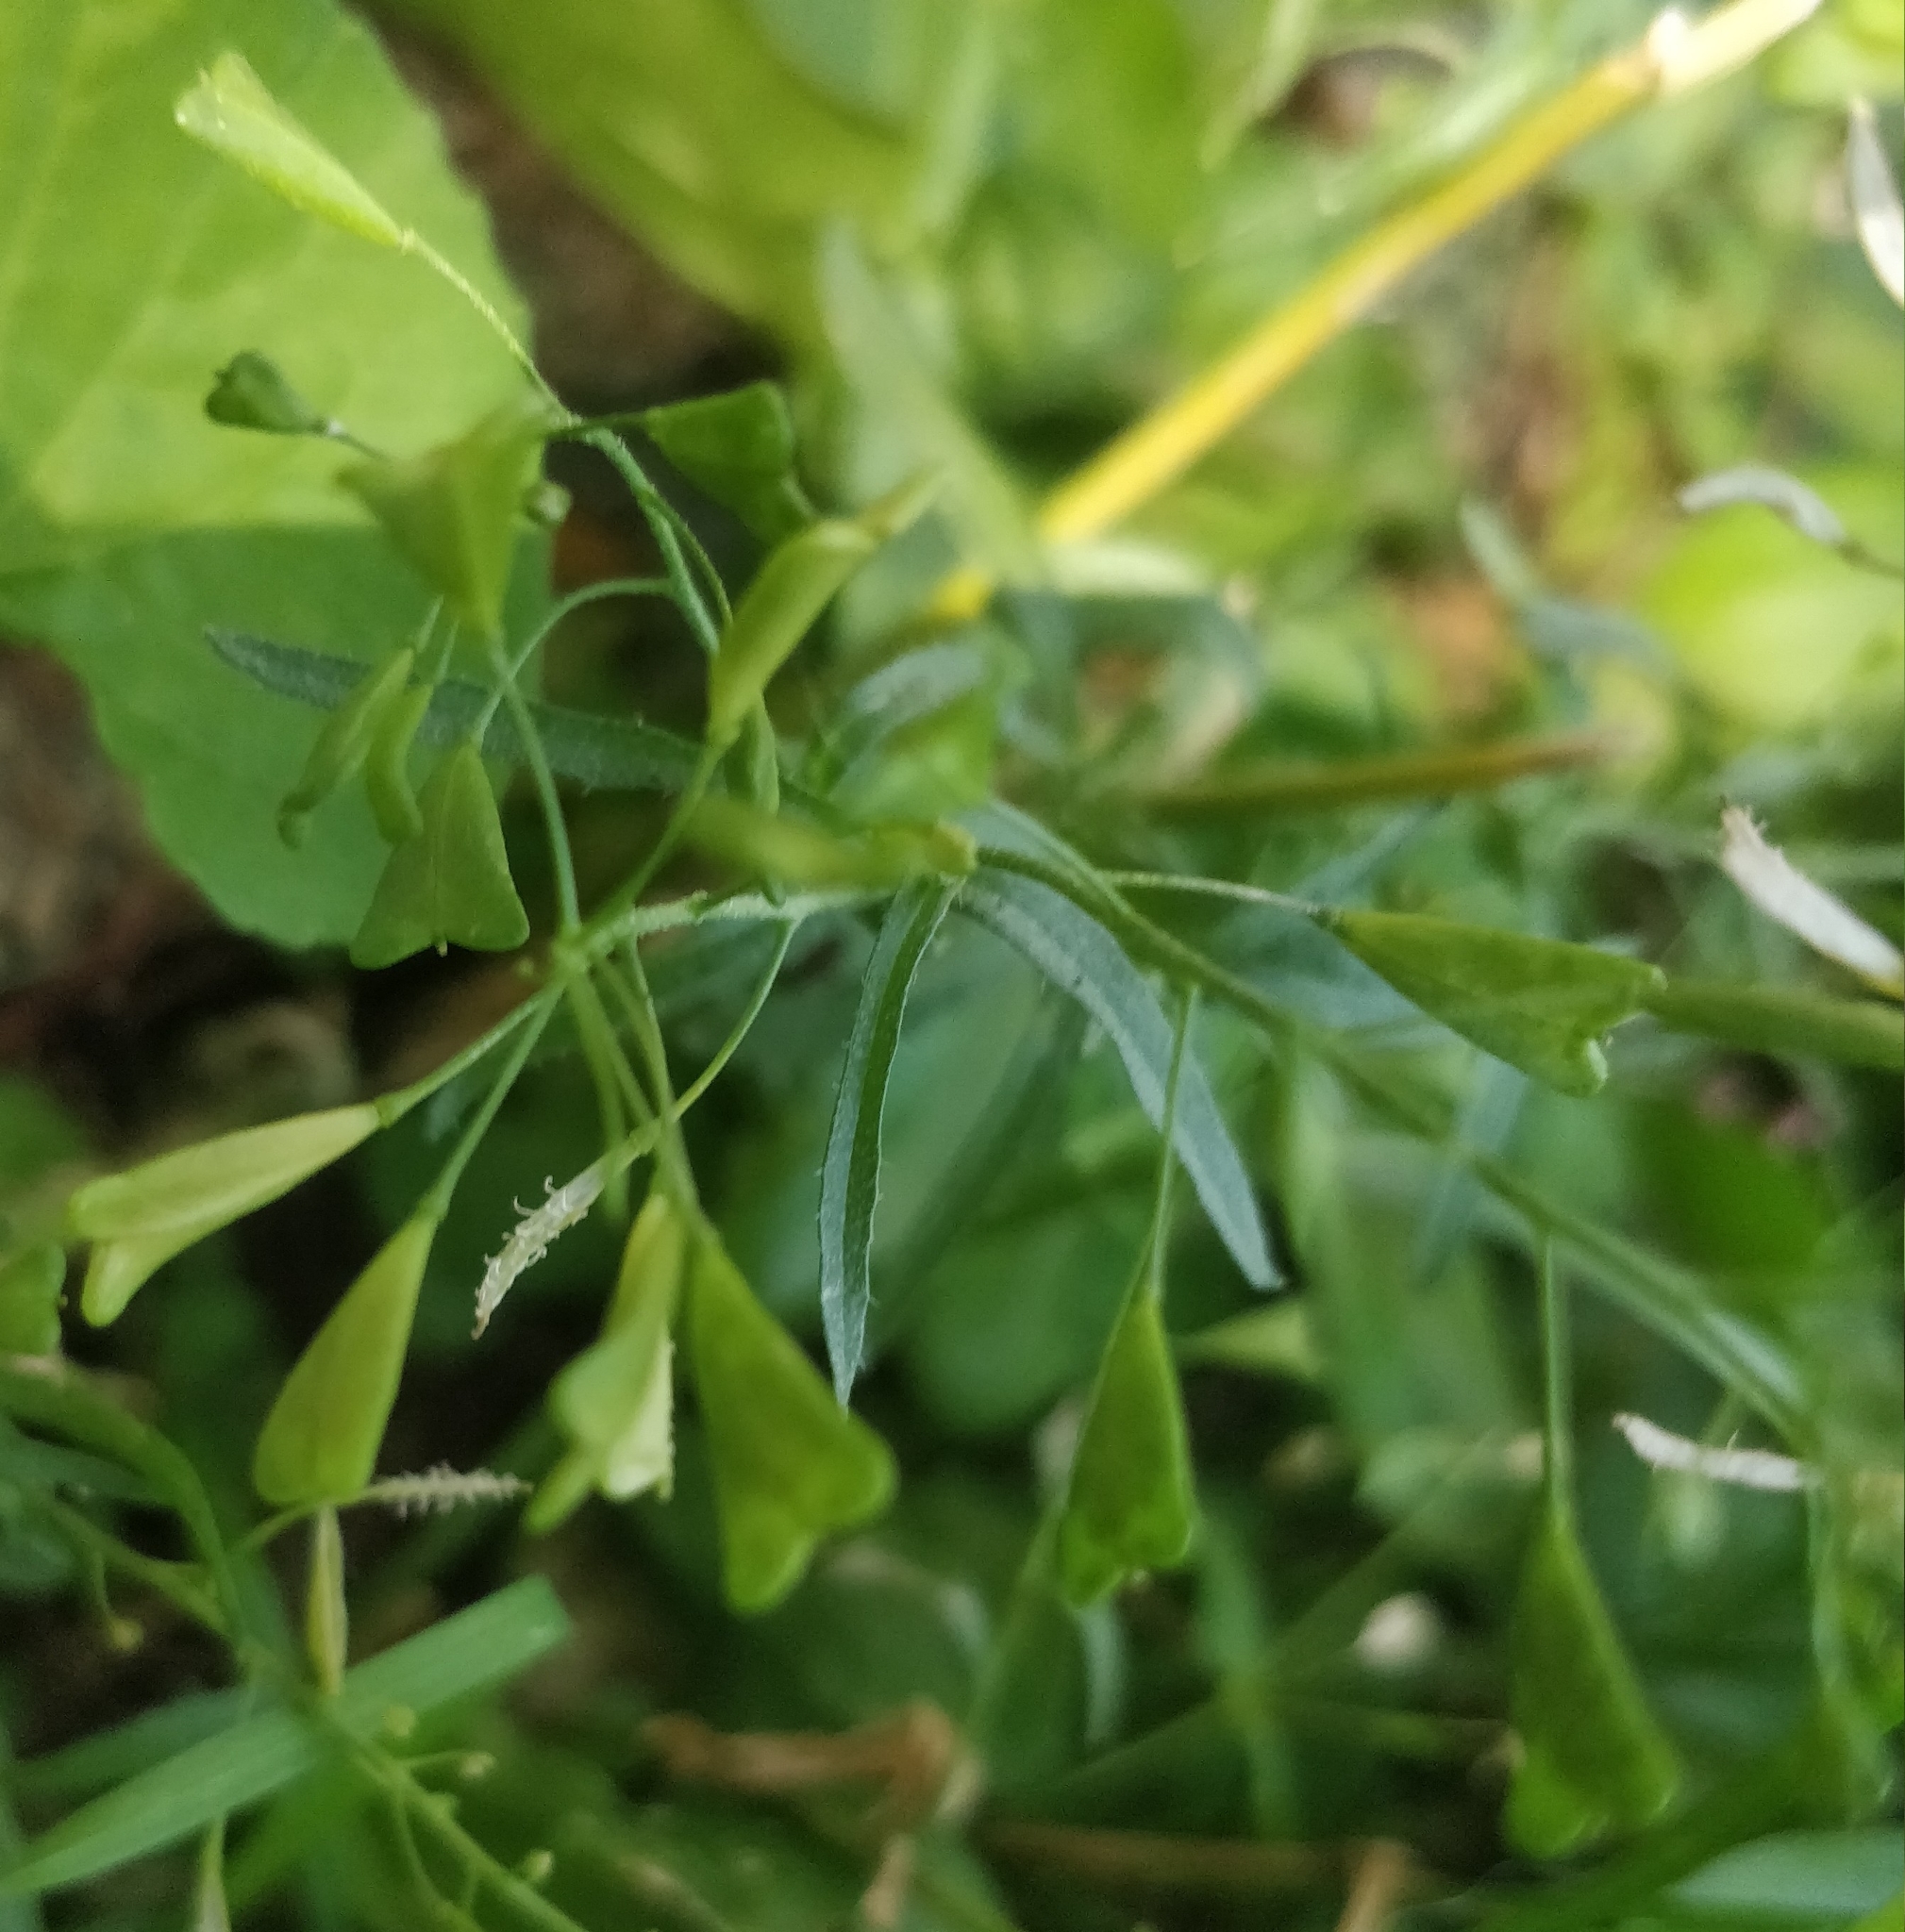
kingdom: Plantae
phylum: Tracheophyta
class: Magnoliopsida
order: Brassicales
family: Brassicaceae
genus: Capsella
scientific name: Capsella bursa-pastoris
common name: Shepherd's purse
